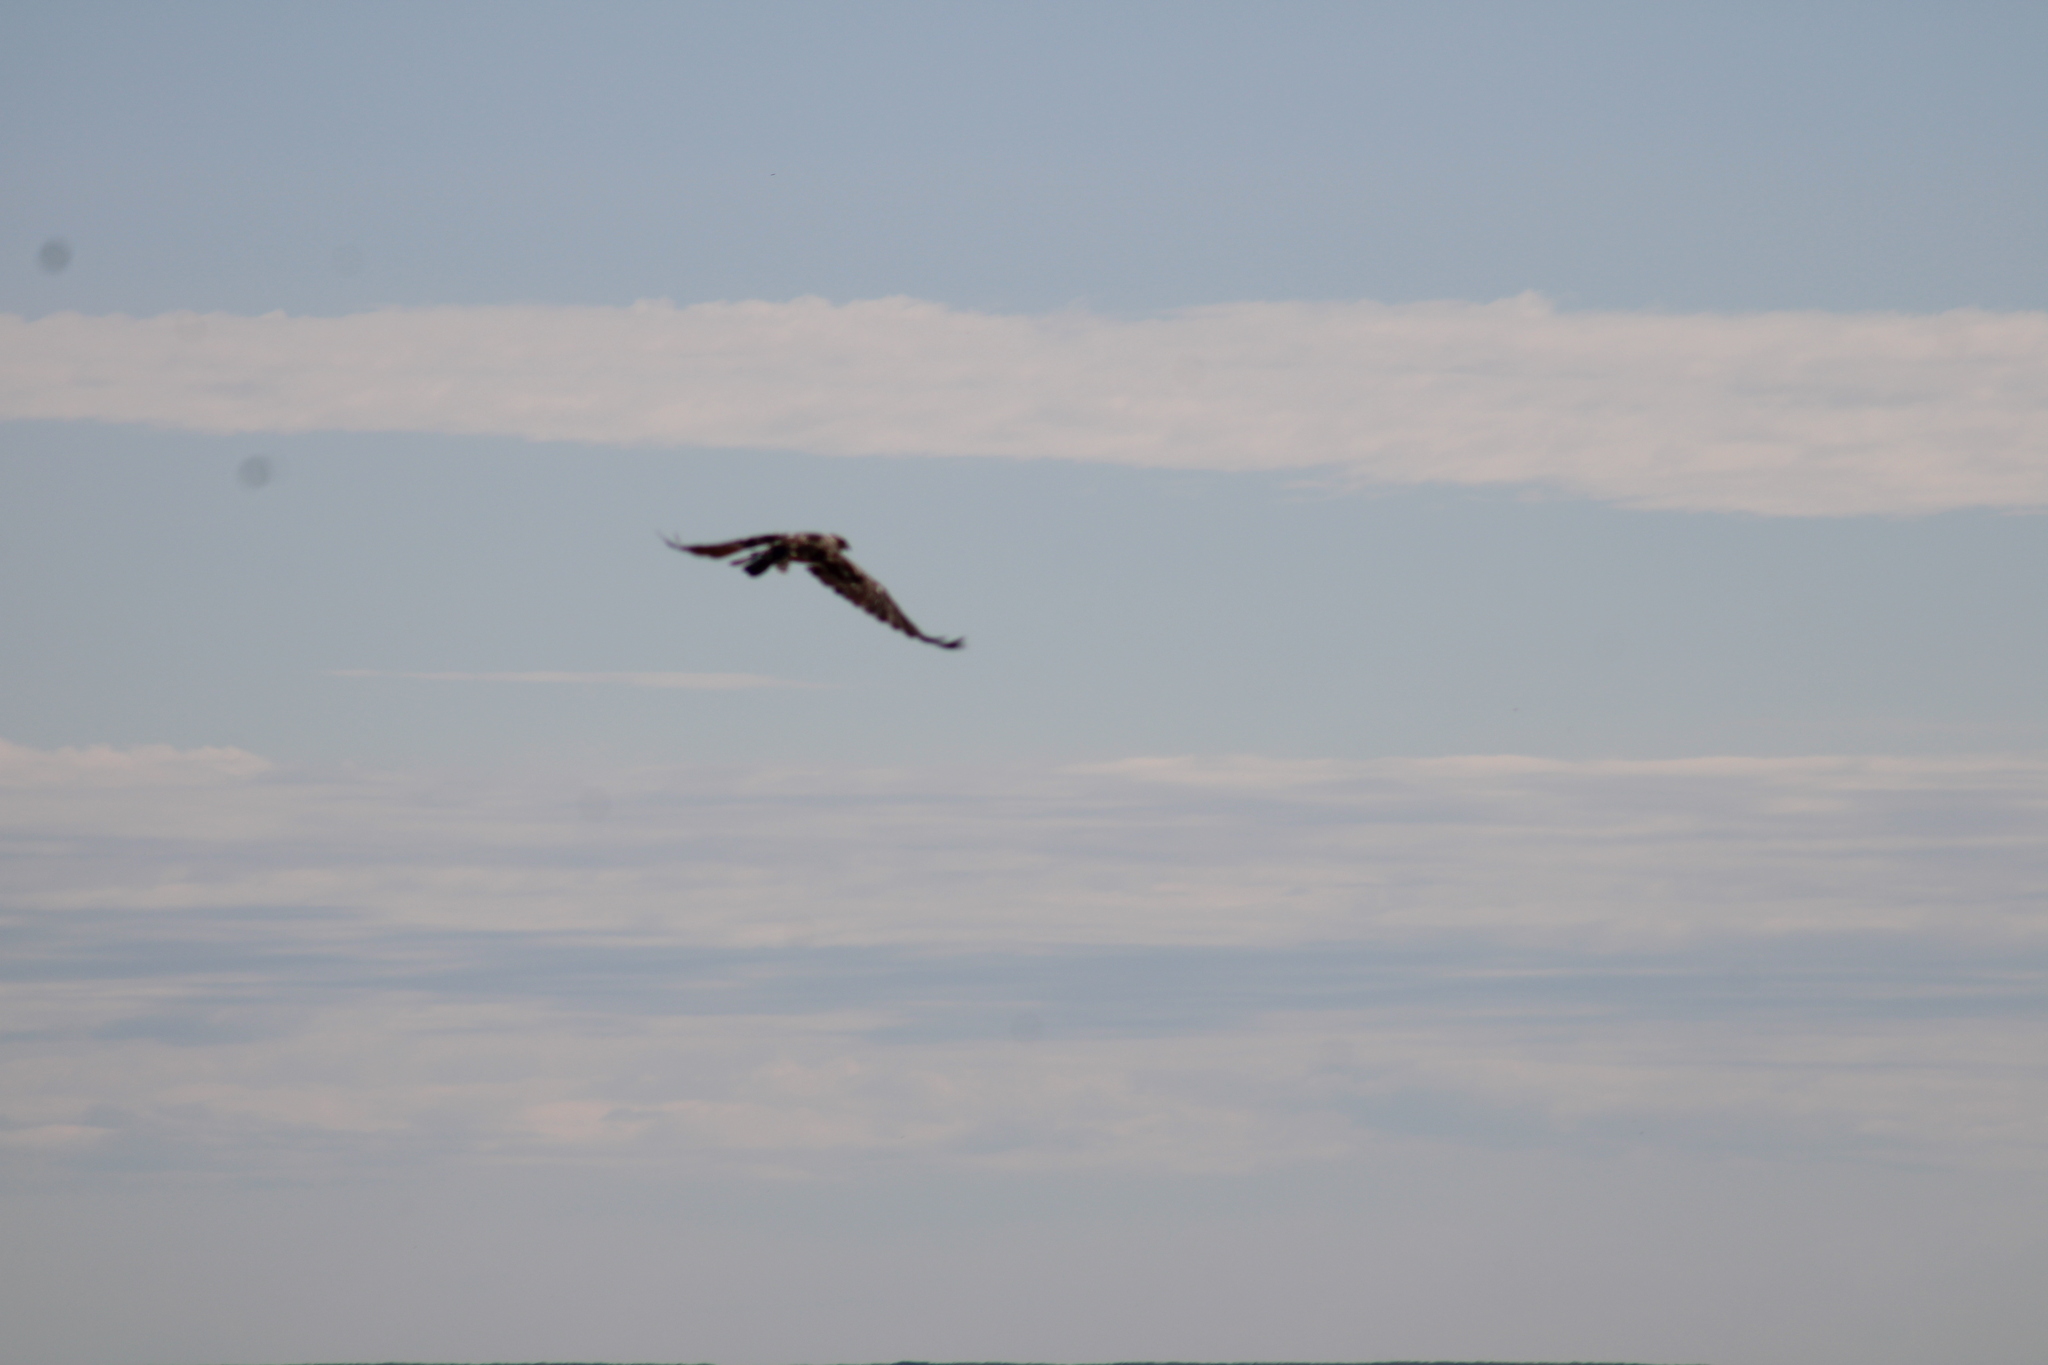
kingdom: Animalia
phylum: Chordata
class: Aves
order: Falconiformes
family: Falconidae
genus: Falco
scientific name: Falco mexicanus
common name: Prairie falcon
